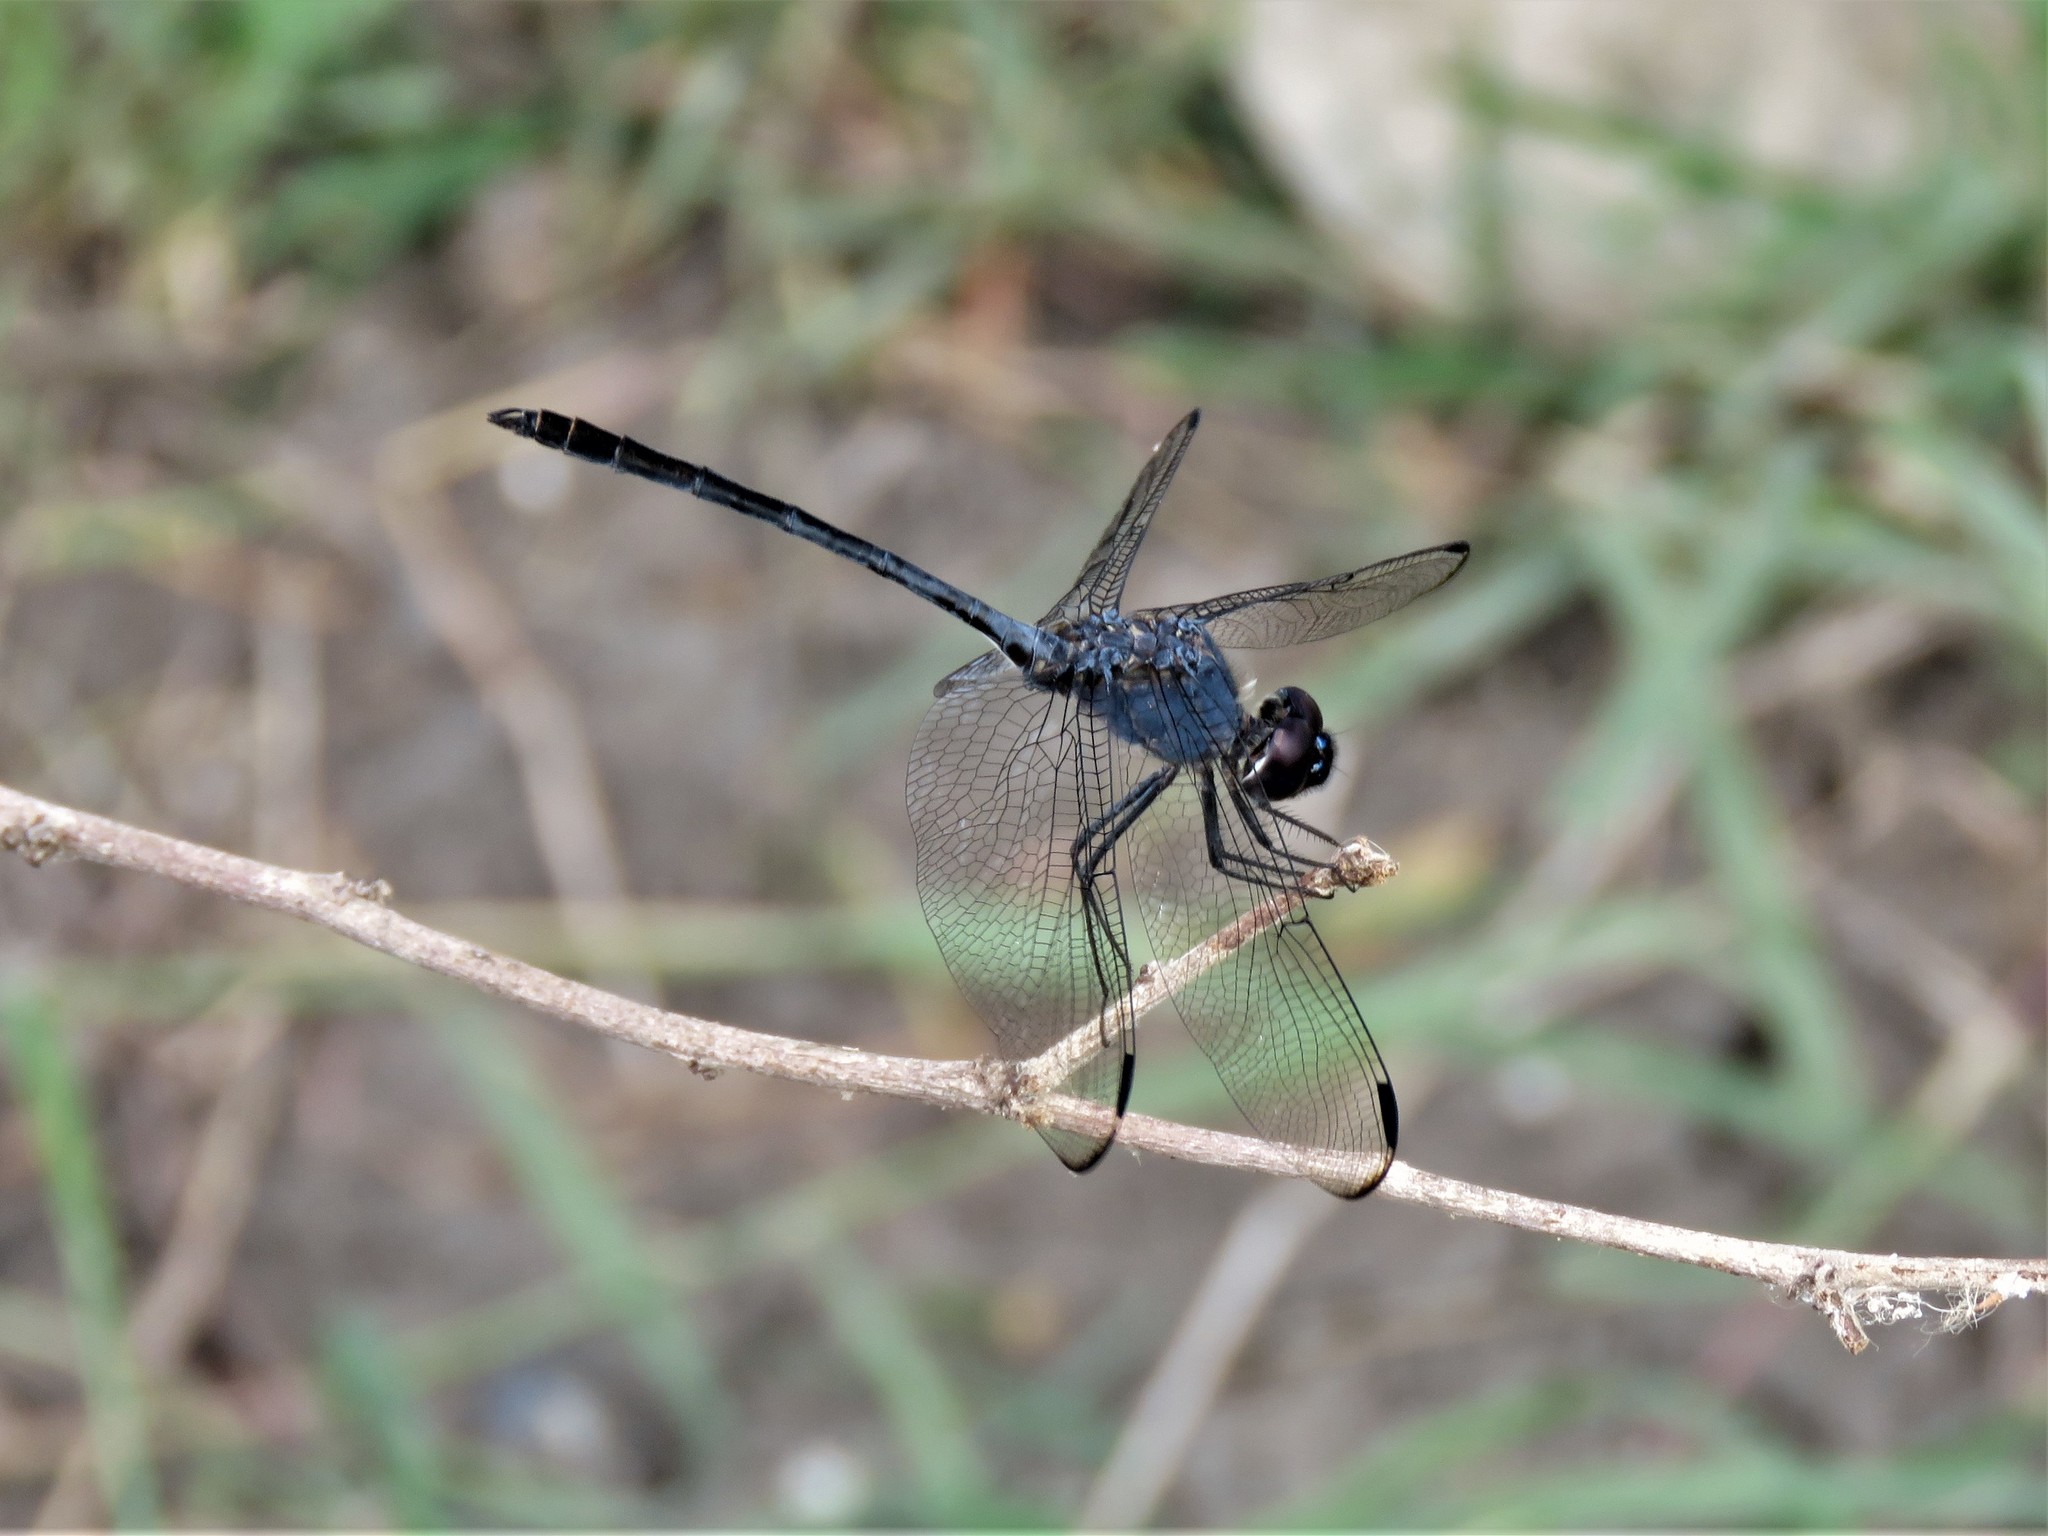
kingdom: Animalia
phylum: Arthropoda
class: Insecta
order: Odonata
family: Libellulidae
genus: Dythemis
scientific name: Dythemis nigrescens
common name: Black setwing
